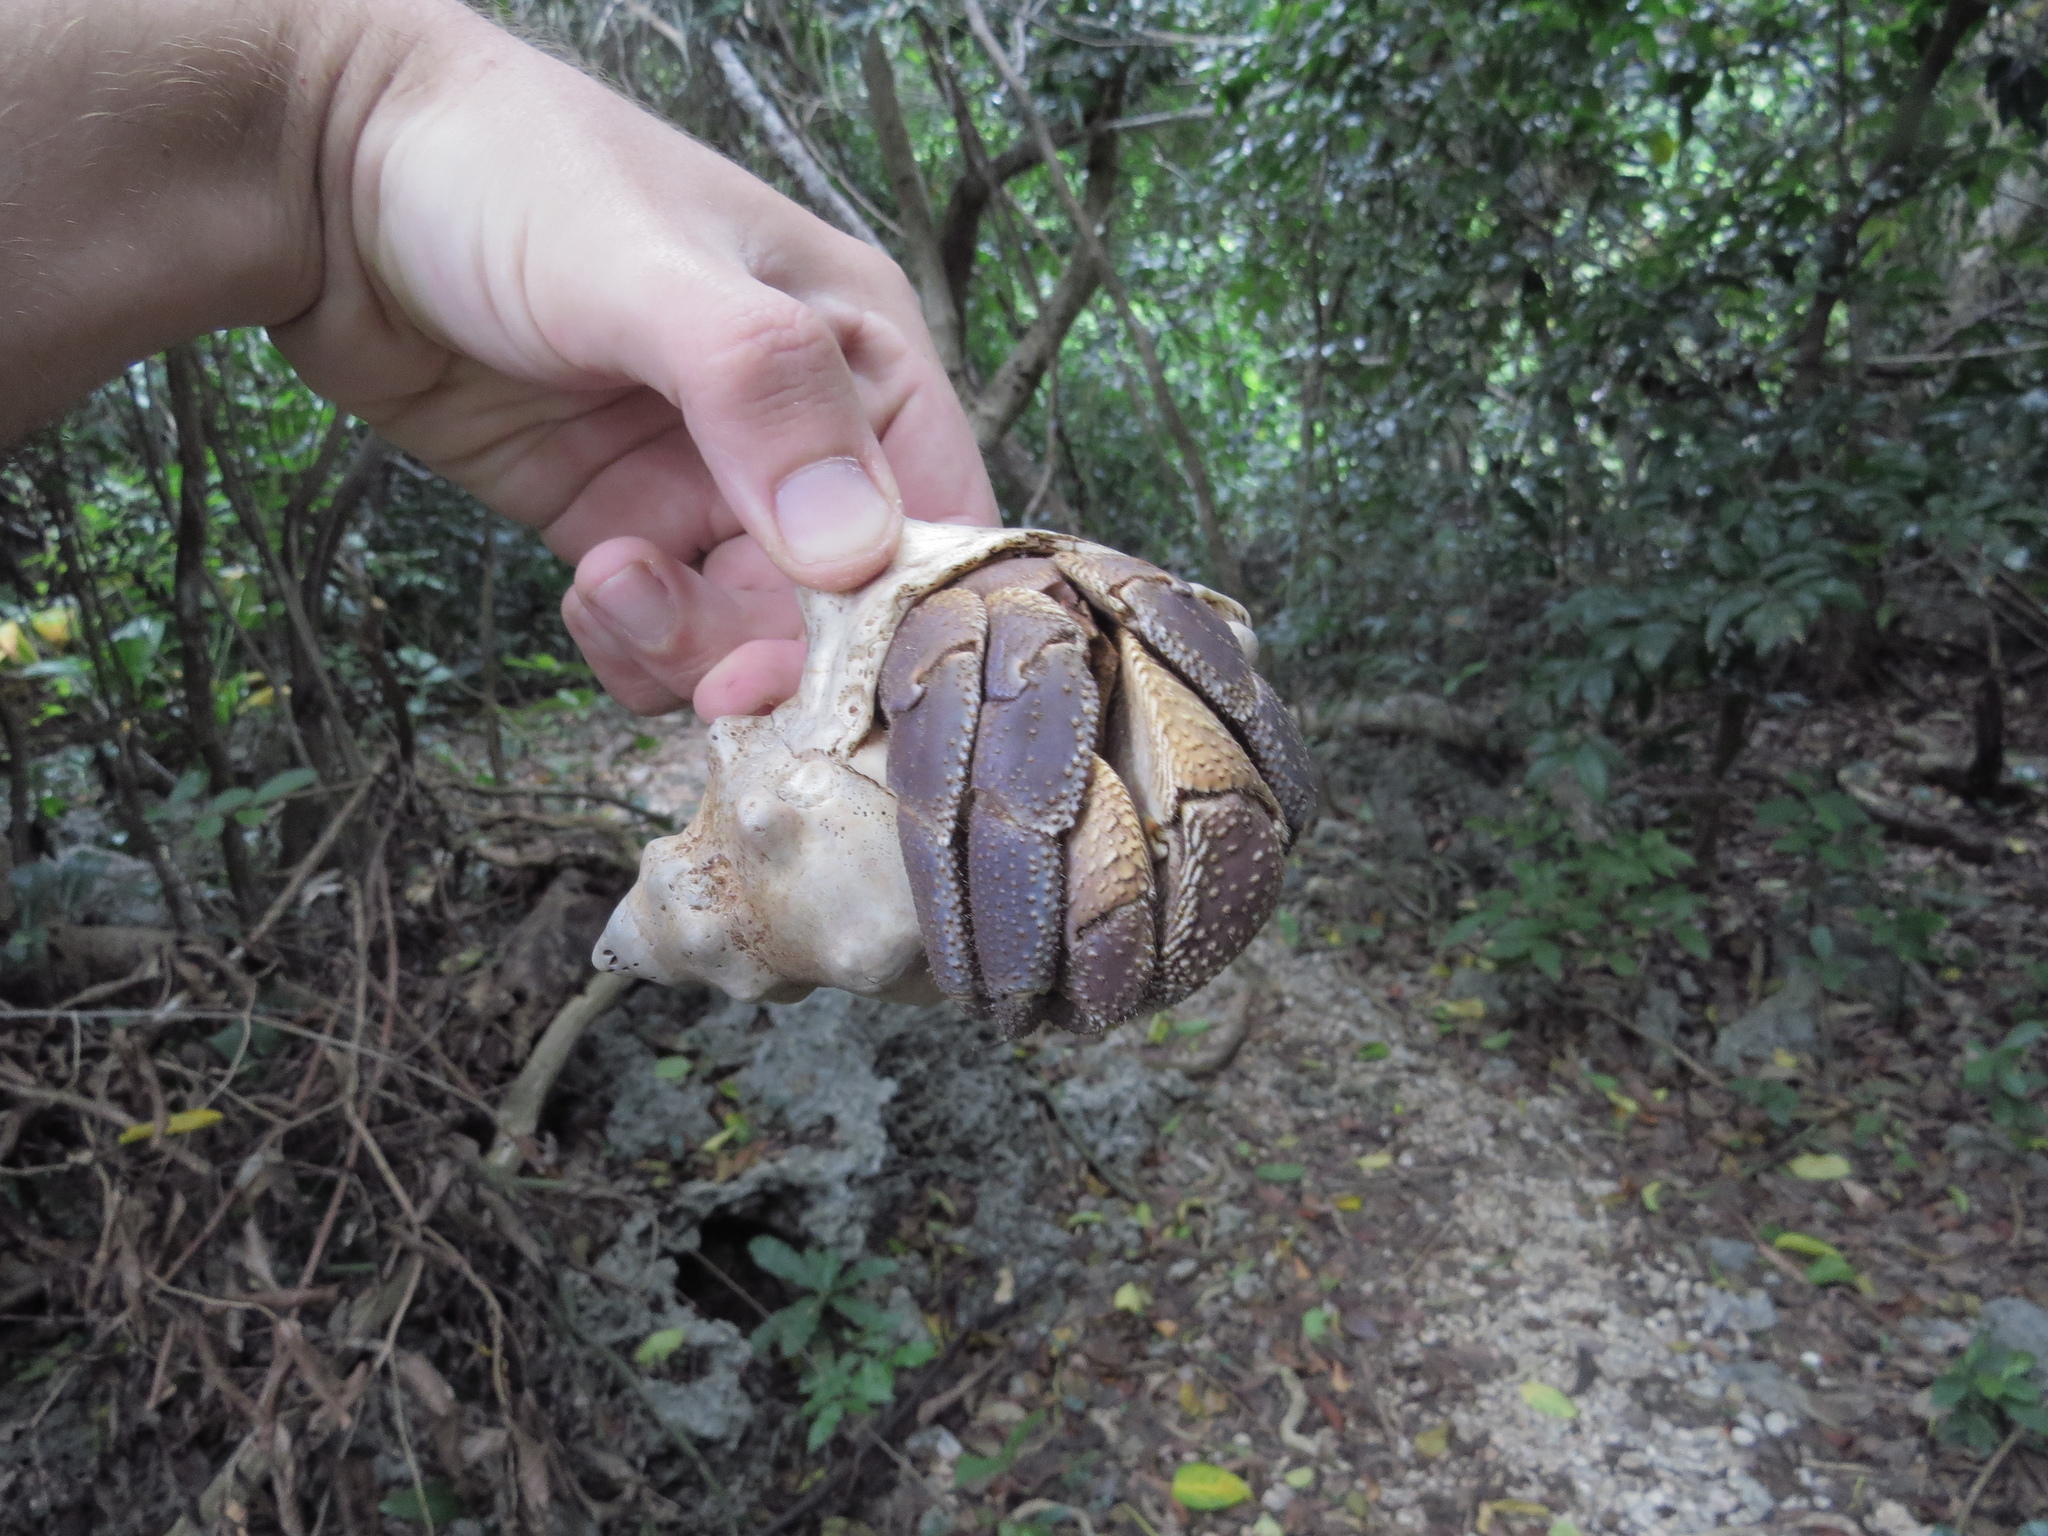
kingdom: Animalia
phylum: Arthropoda
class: Malacostraca
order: Decapoda
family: Coenobitidae
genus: Coenobita
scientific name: Coenobita brevimanus
